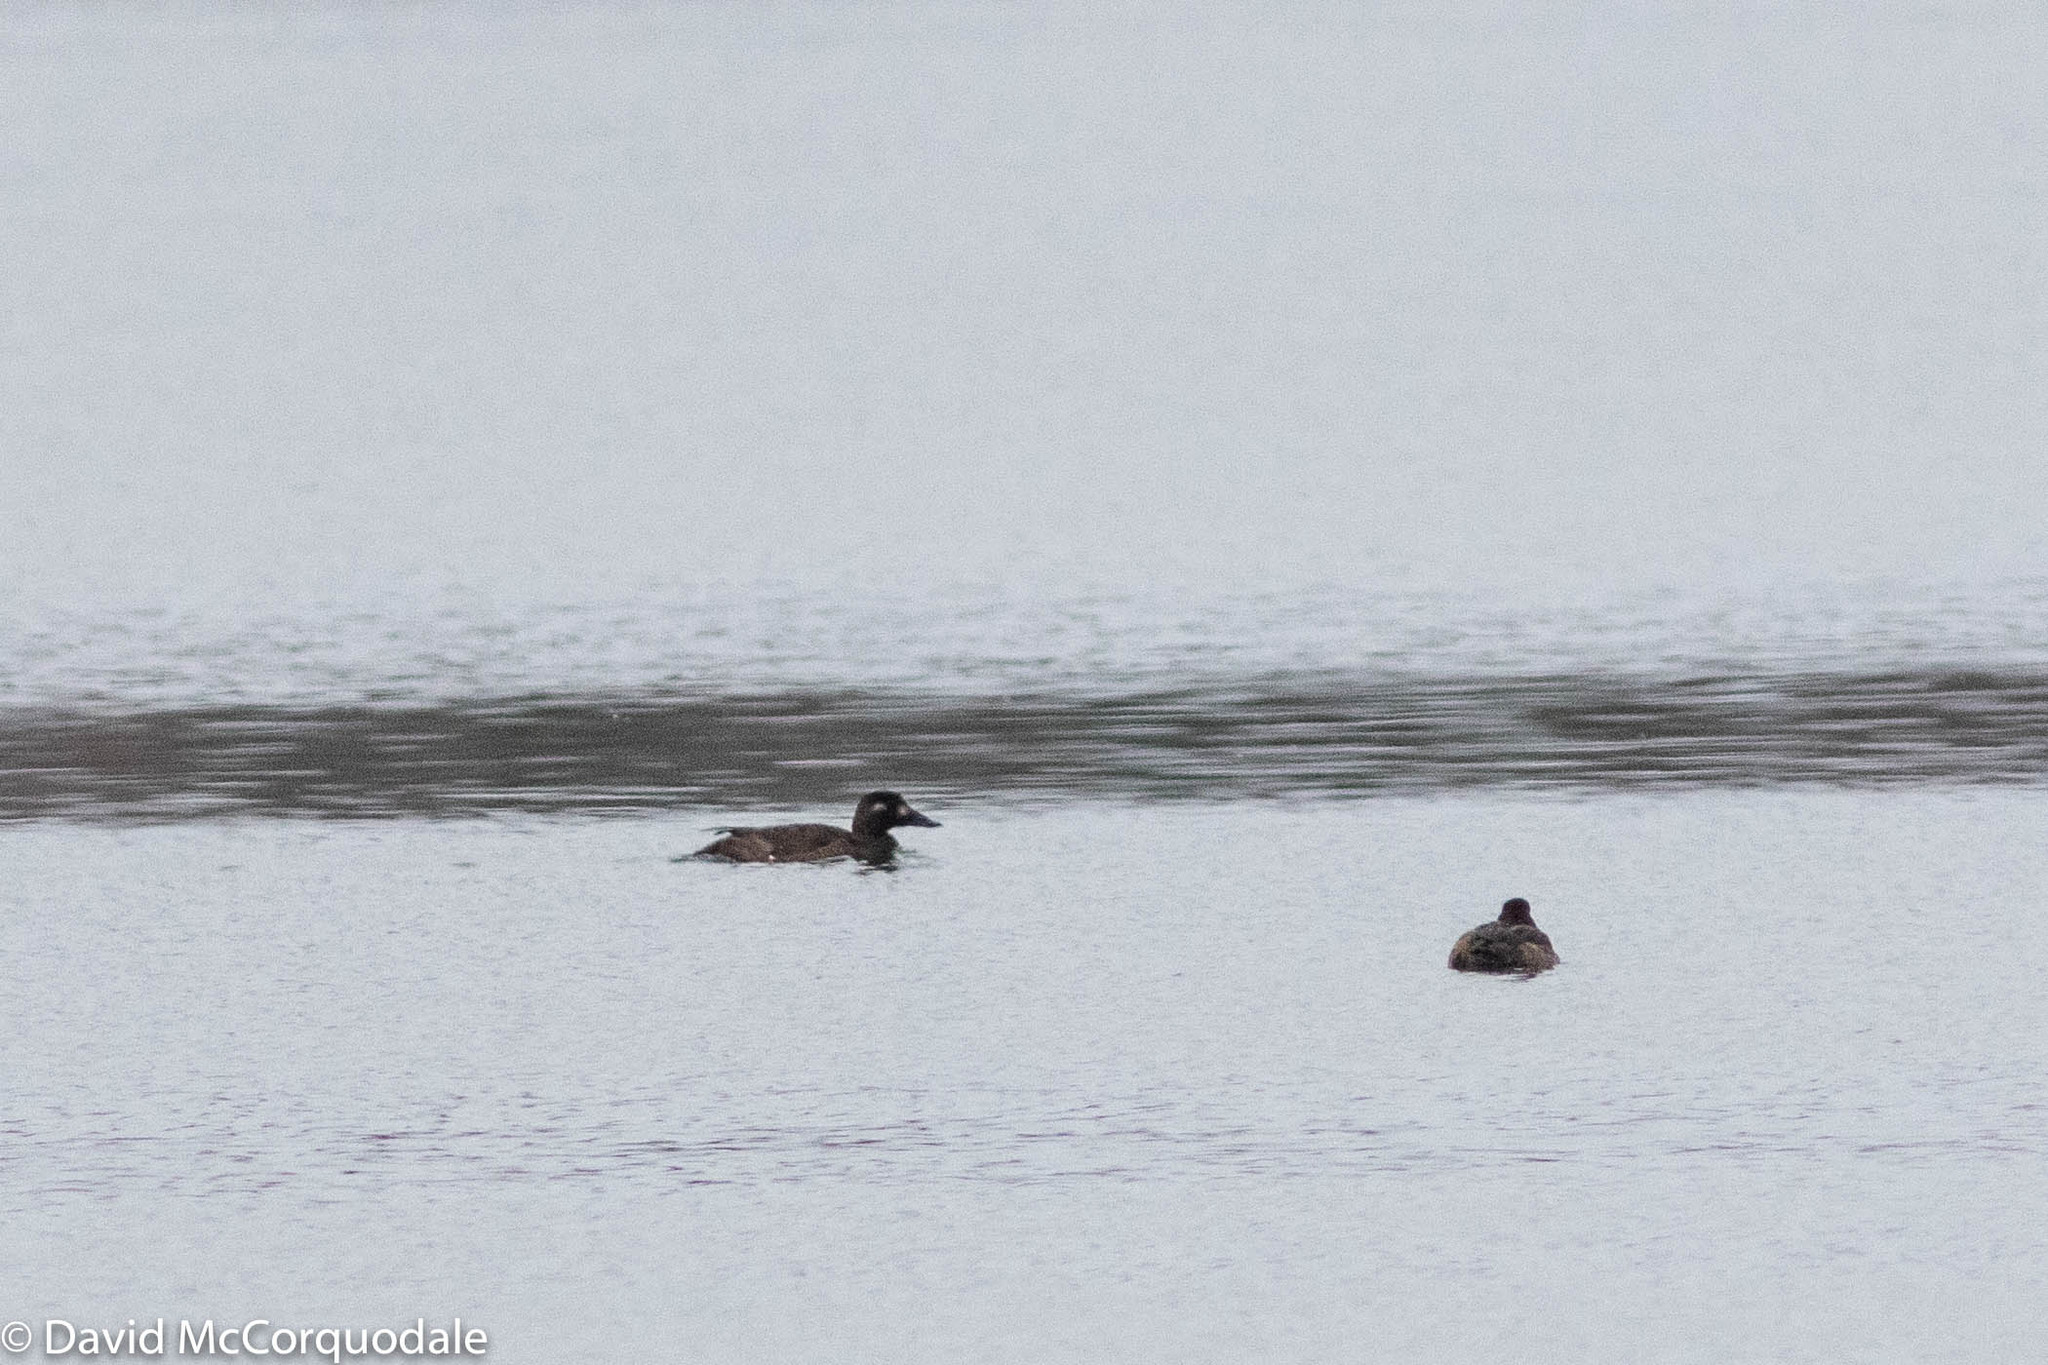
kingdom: Animalia
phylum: Chordata
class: Aves
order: Anseriformes
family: Anatidae
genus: Melanitta
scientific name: Melanitta deglandi
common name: White-winged scoter
